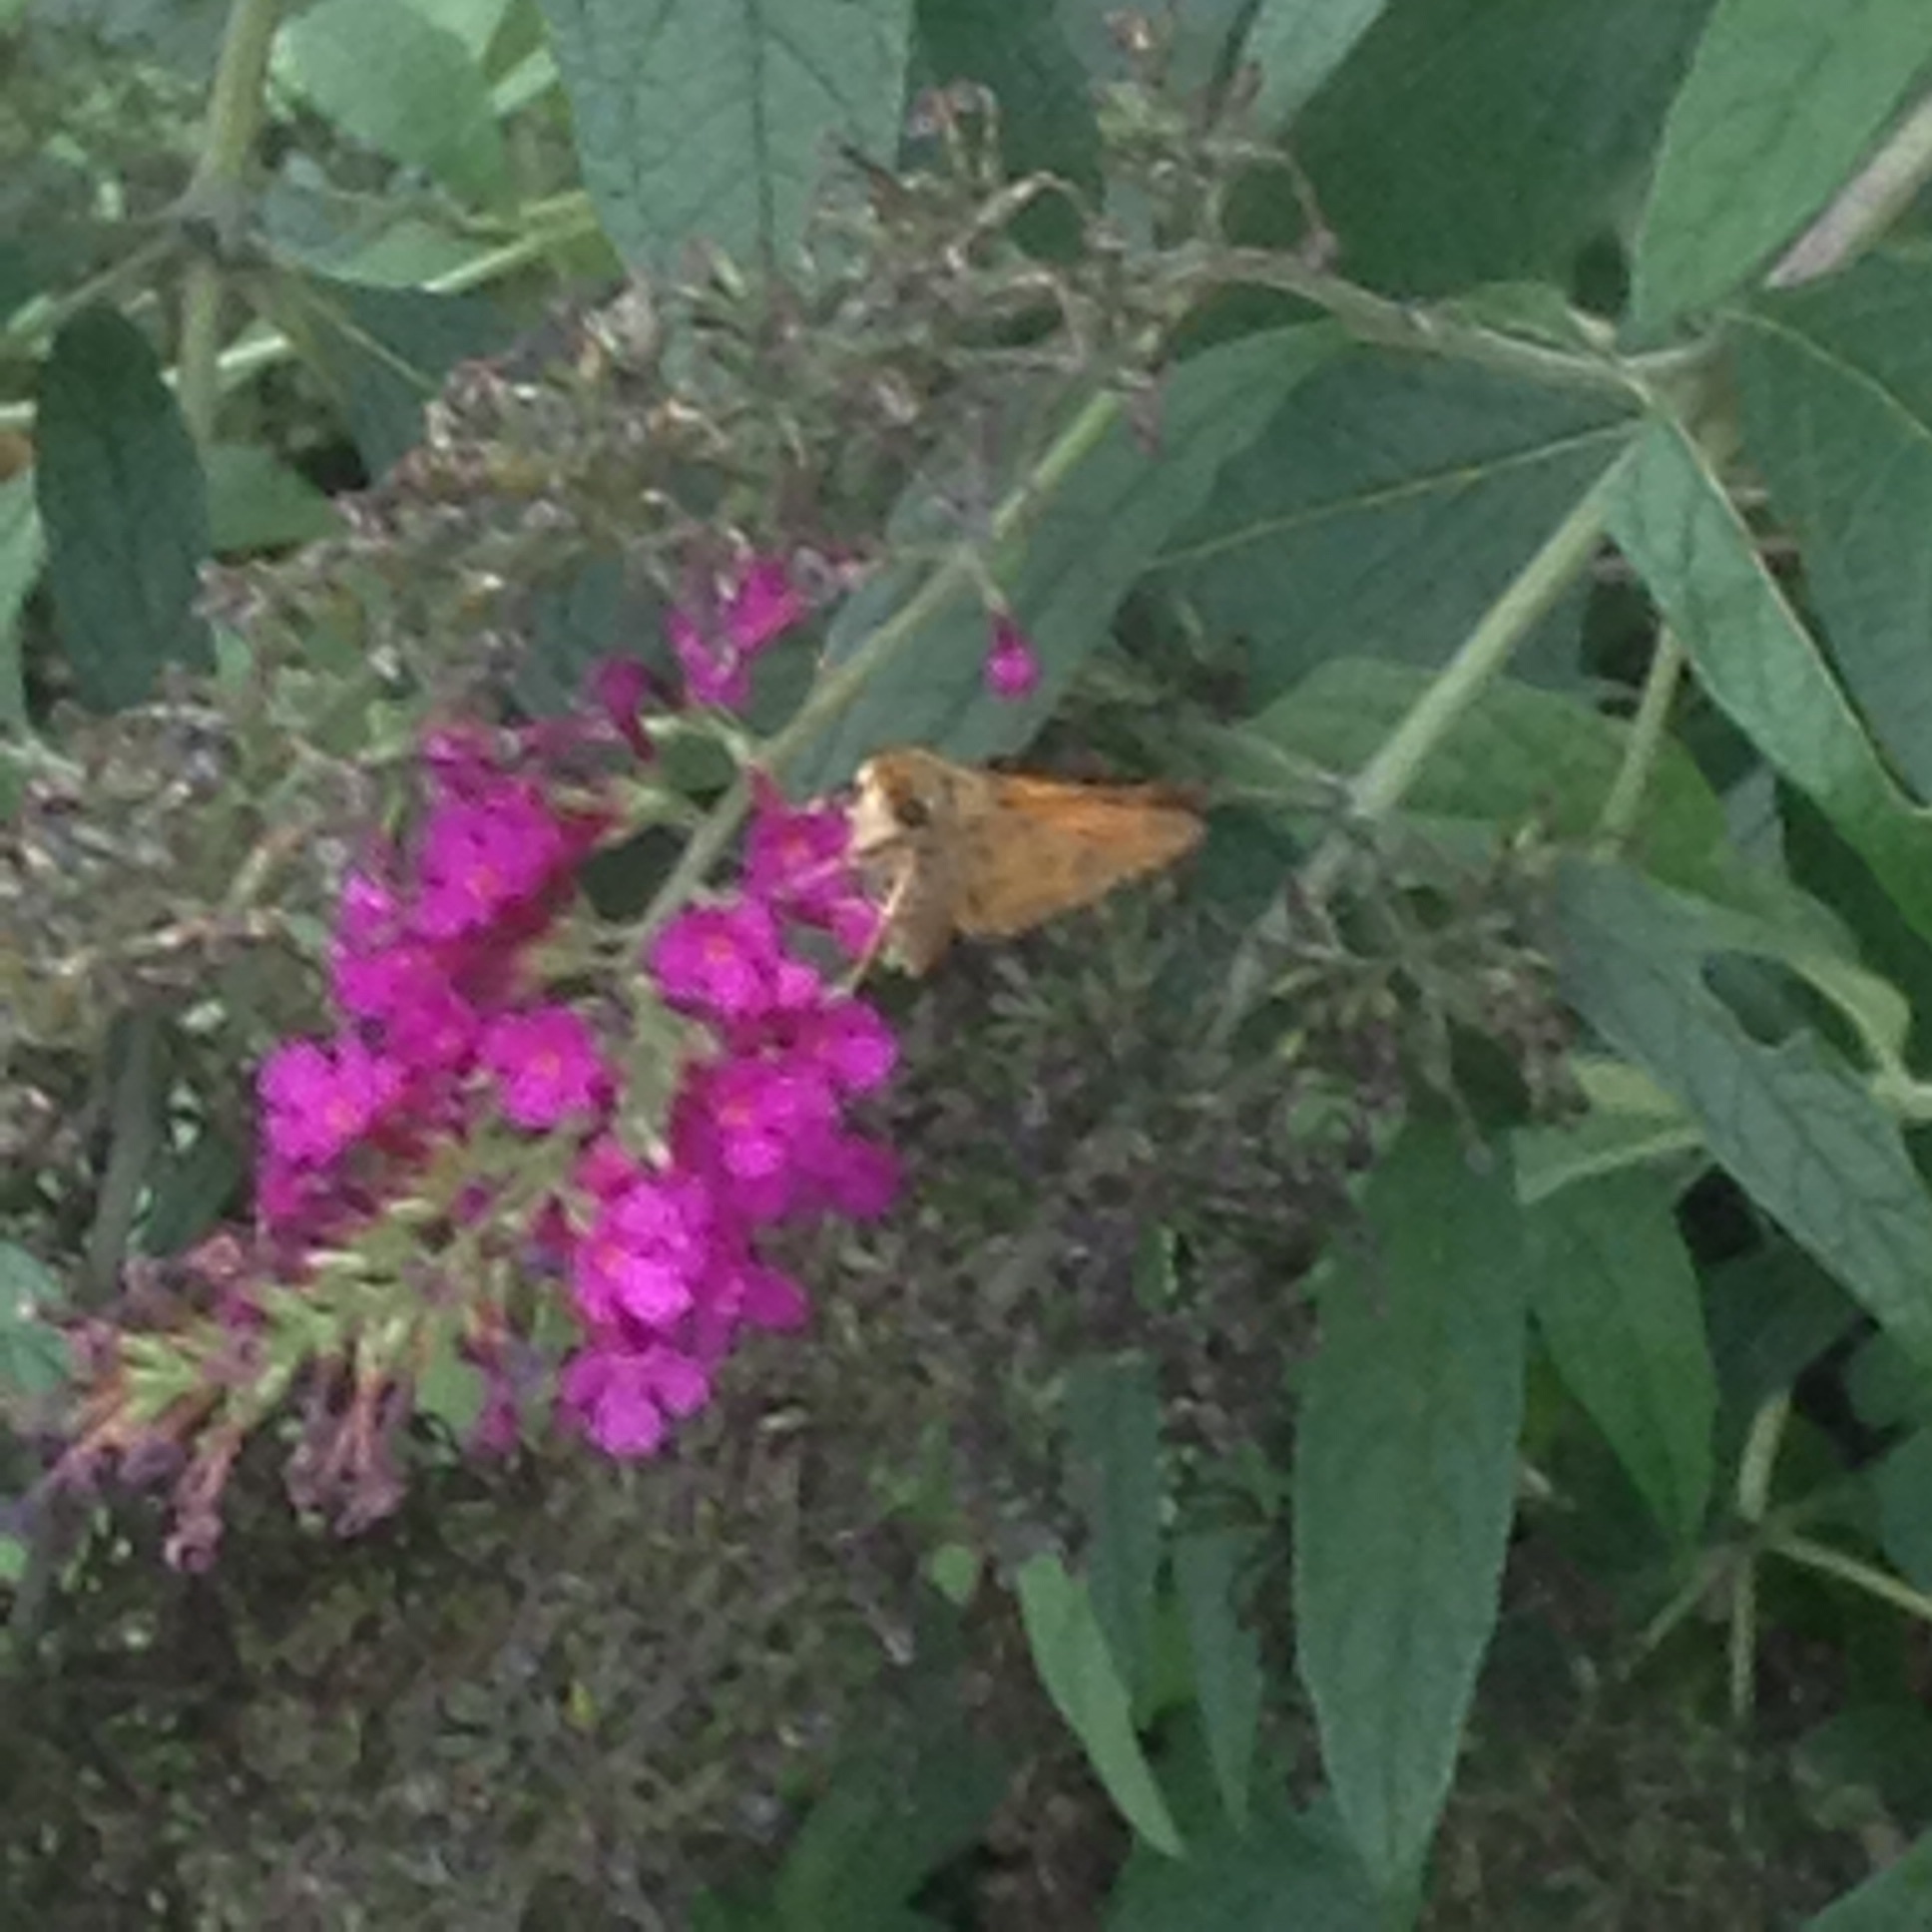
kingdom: Animalia
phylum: Arthropoda
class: Insecta
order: Lepidoptera
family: Hesperiidae
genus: Atalopedes
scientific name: Atalopedes
